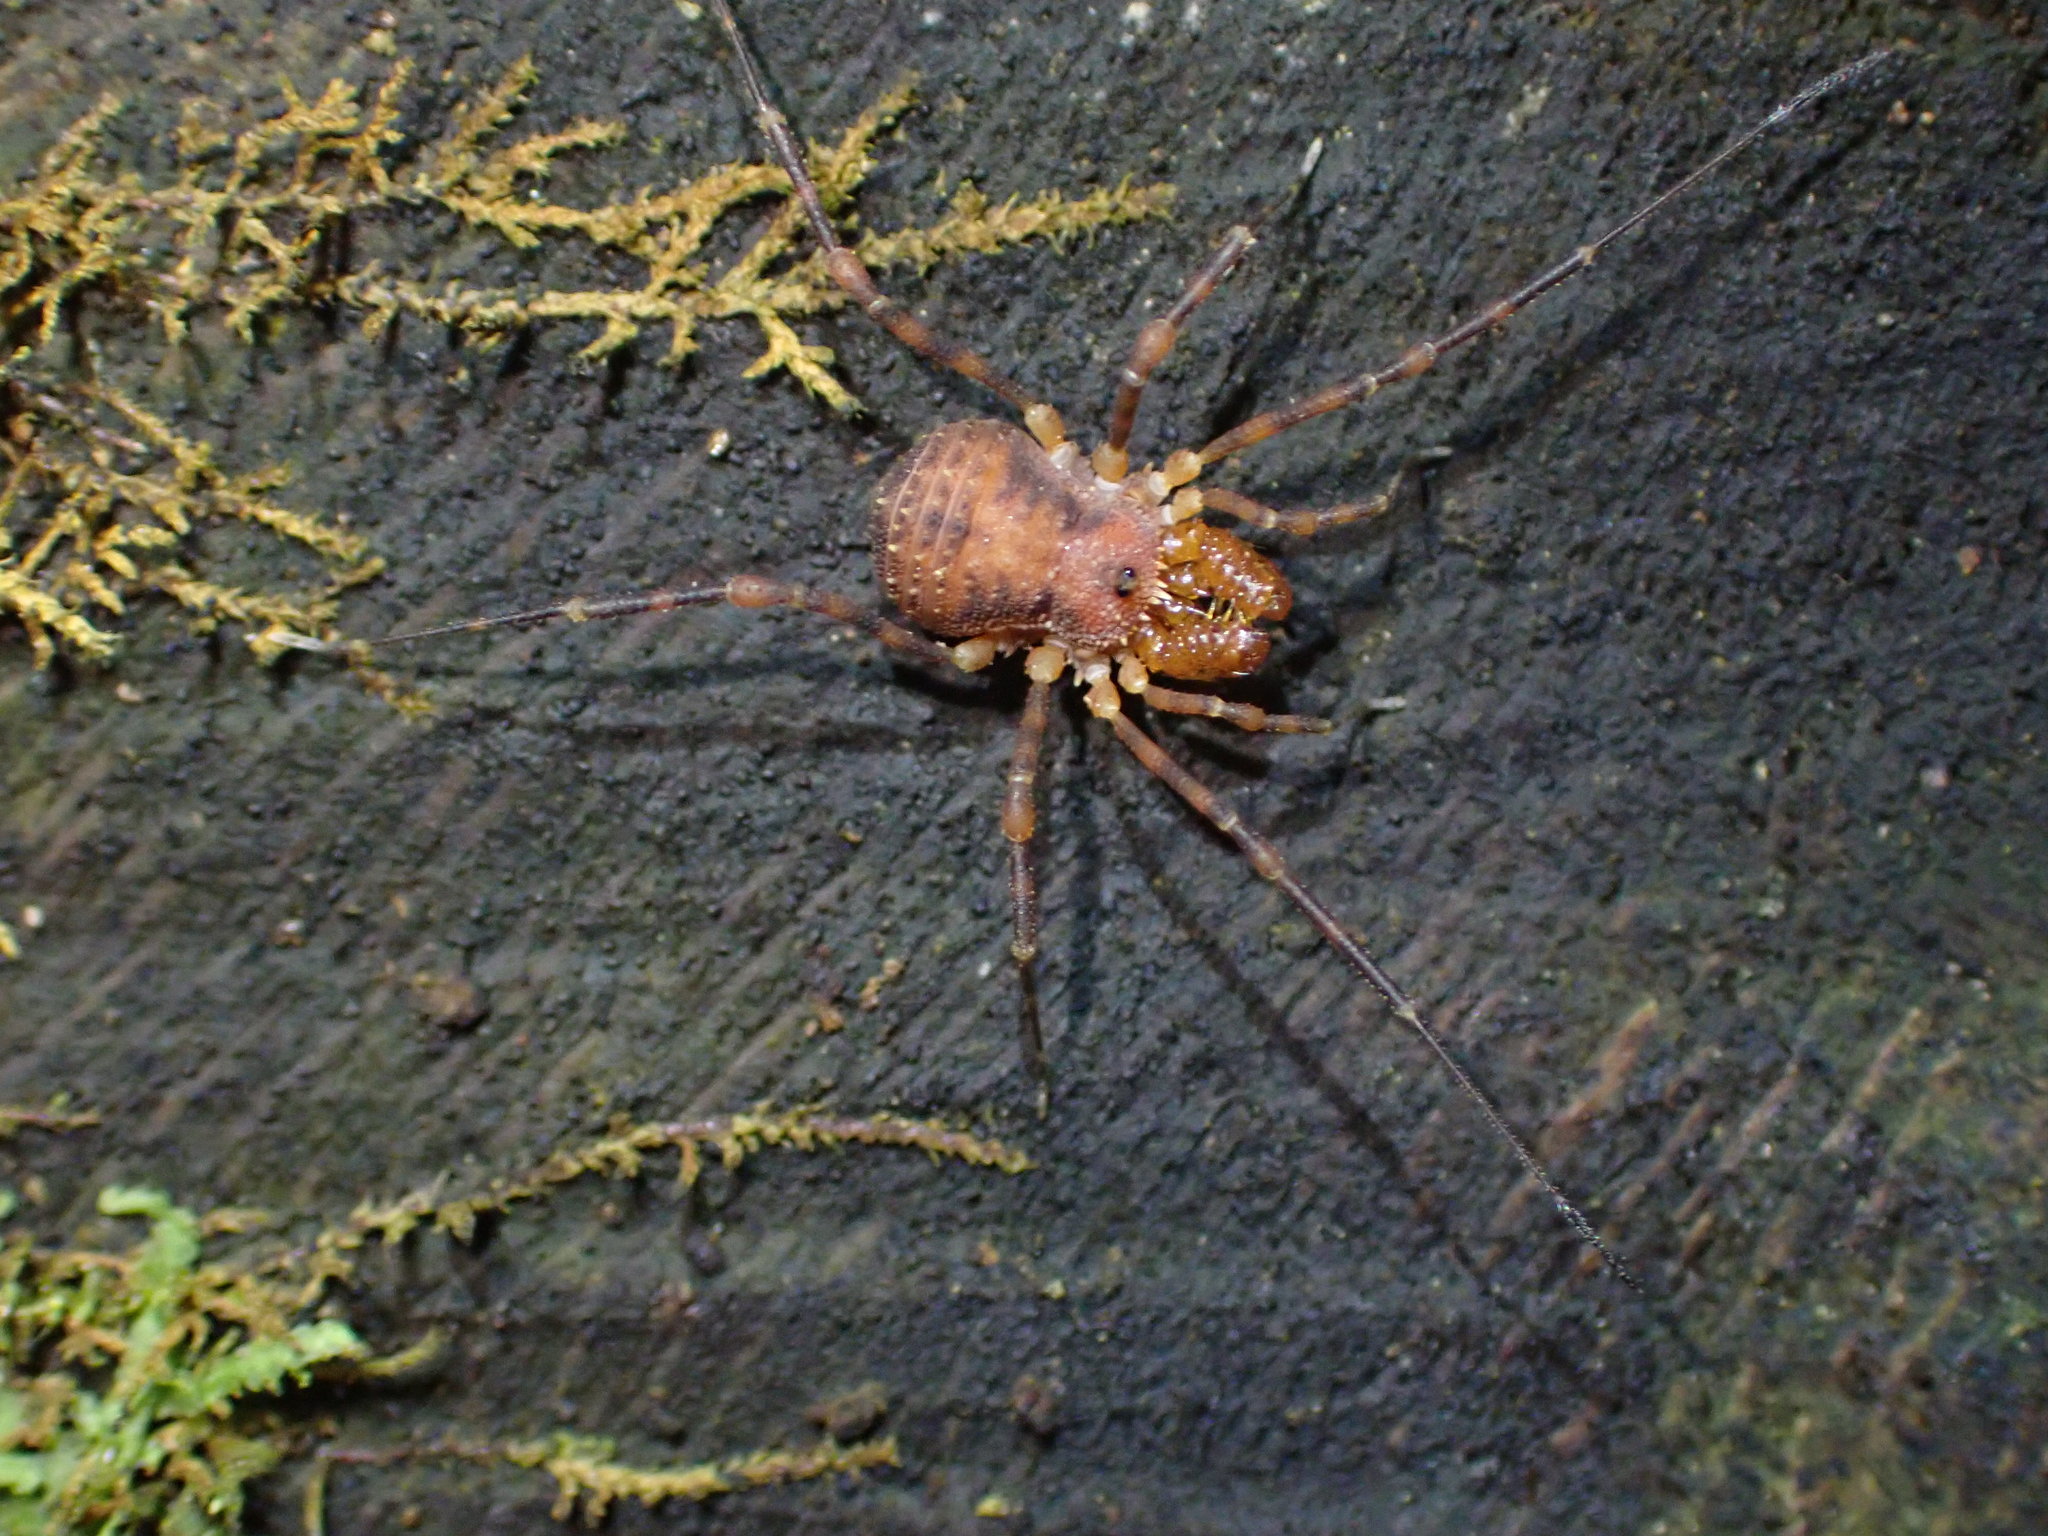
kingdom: Animalia
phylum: Arthropoda
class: Arachnida
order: Opiliones
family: Triaenonychidae
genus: Prasma
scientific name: Prasma tuberculata
